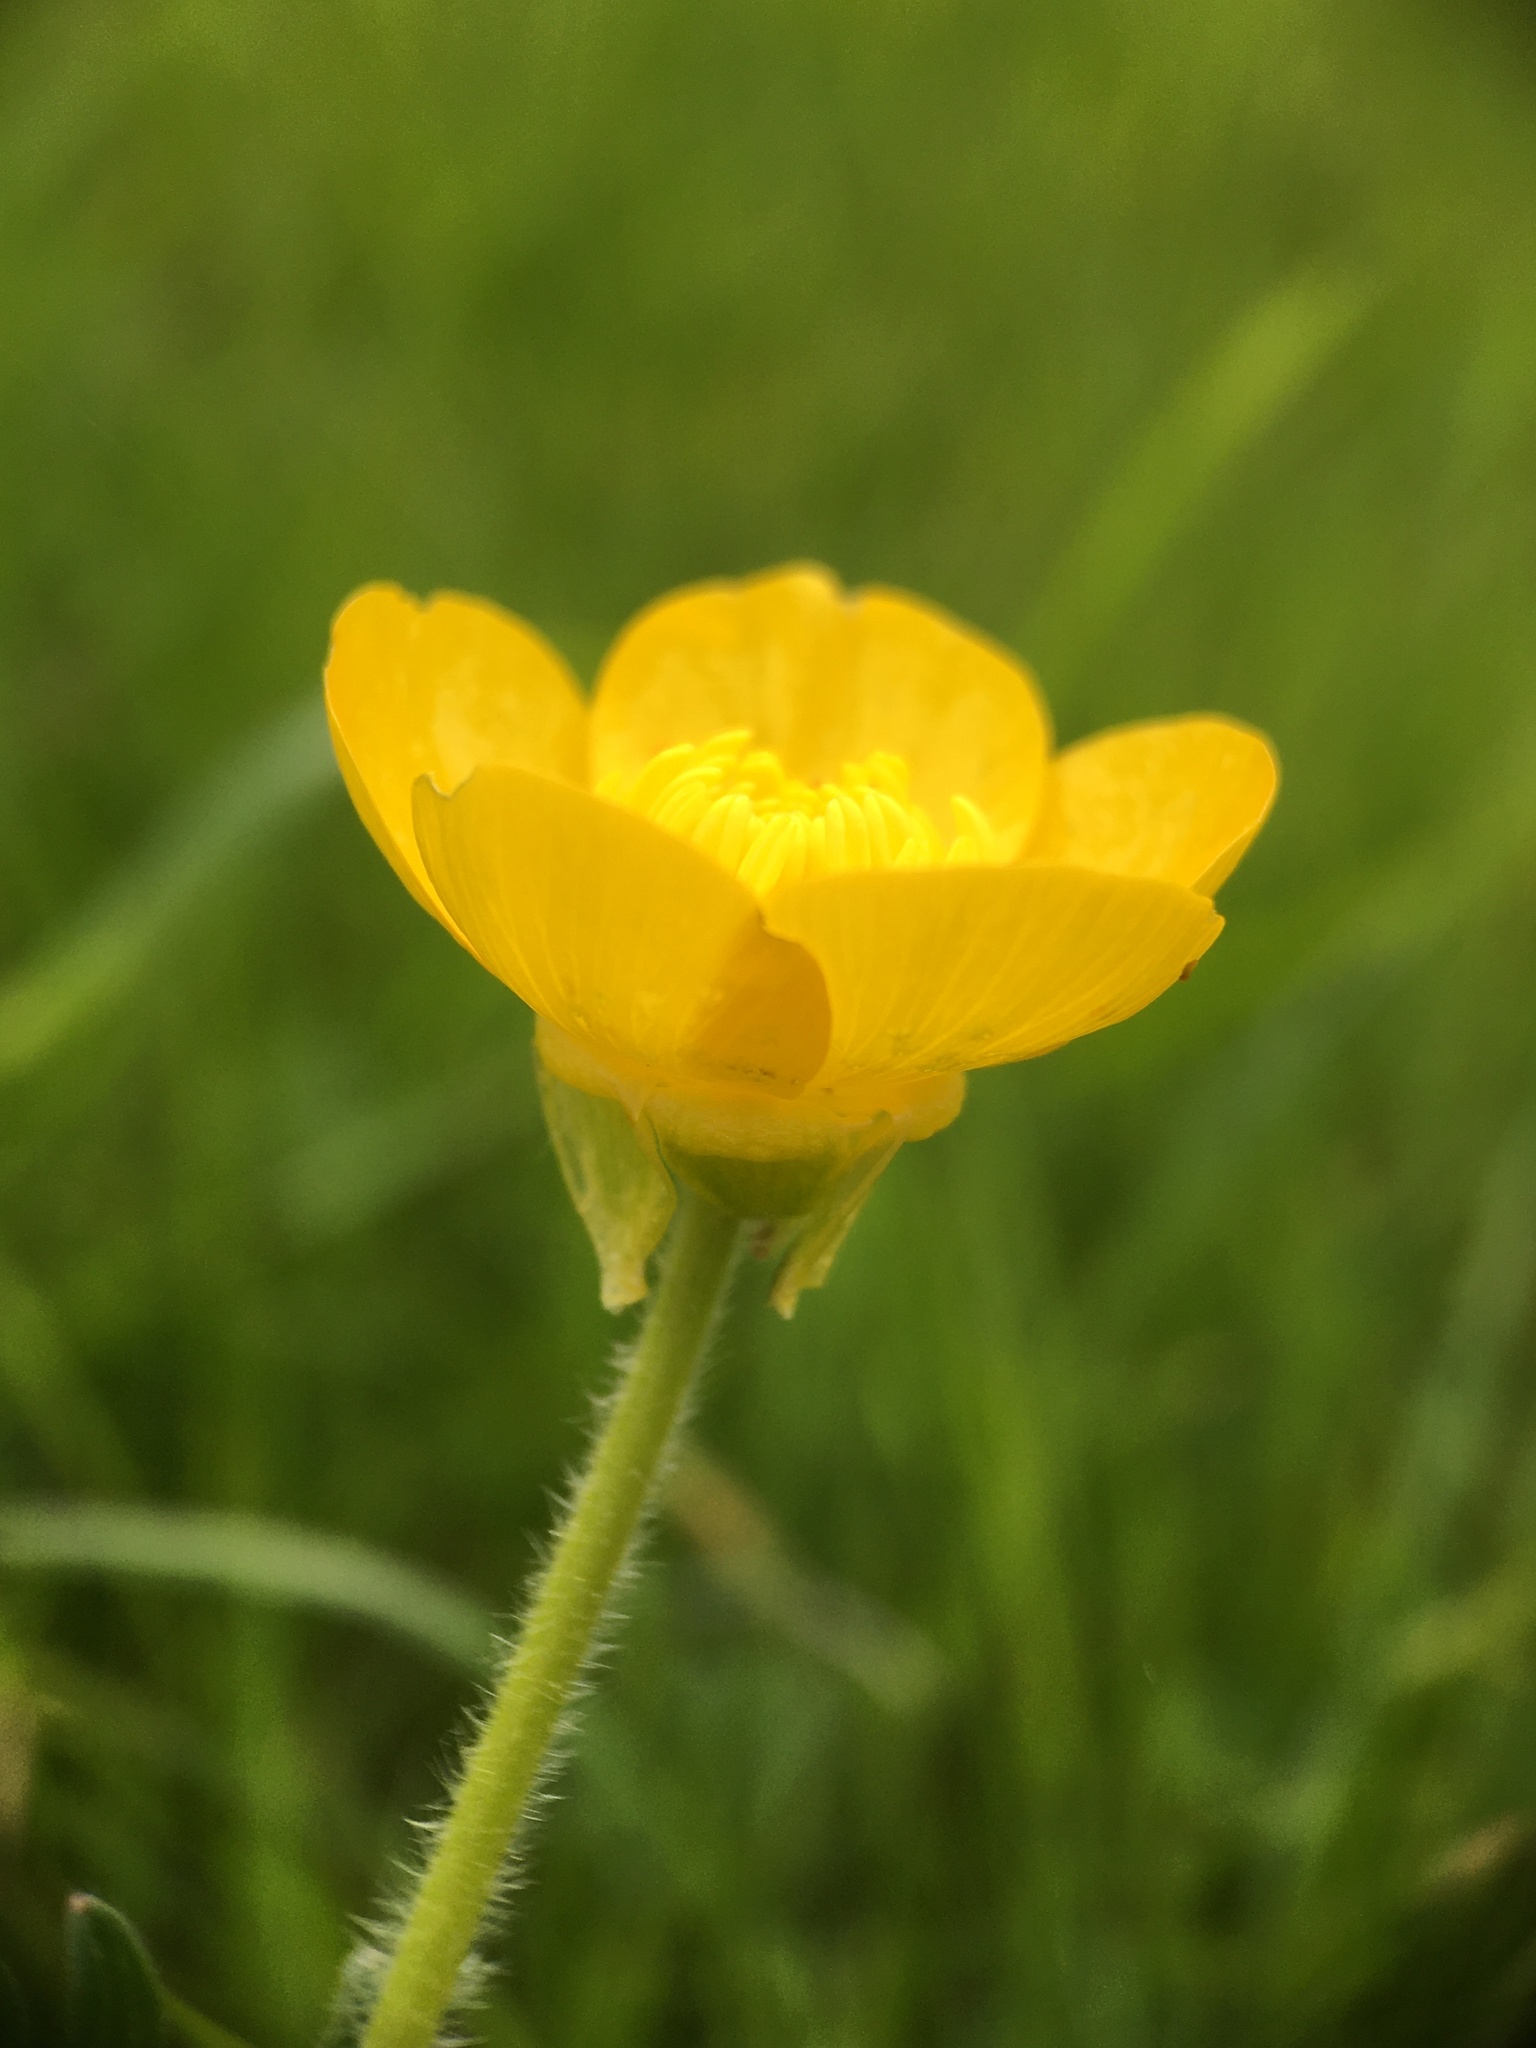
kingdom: Plantae
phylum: Tracheophyta
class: Magnoliopsida
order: Ranunculales
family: Ranunculaceae
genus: Ranunculus
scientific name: Ranunculus bulbosus
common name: Bulbous buttercup
